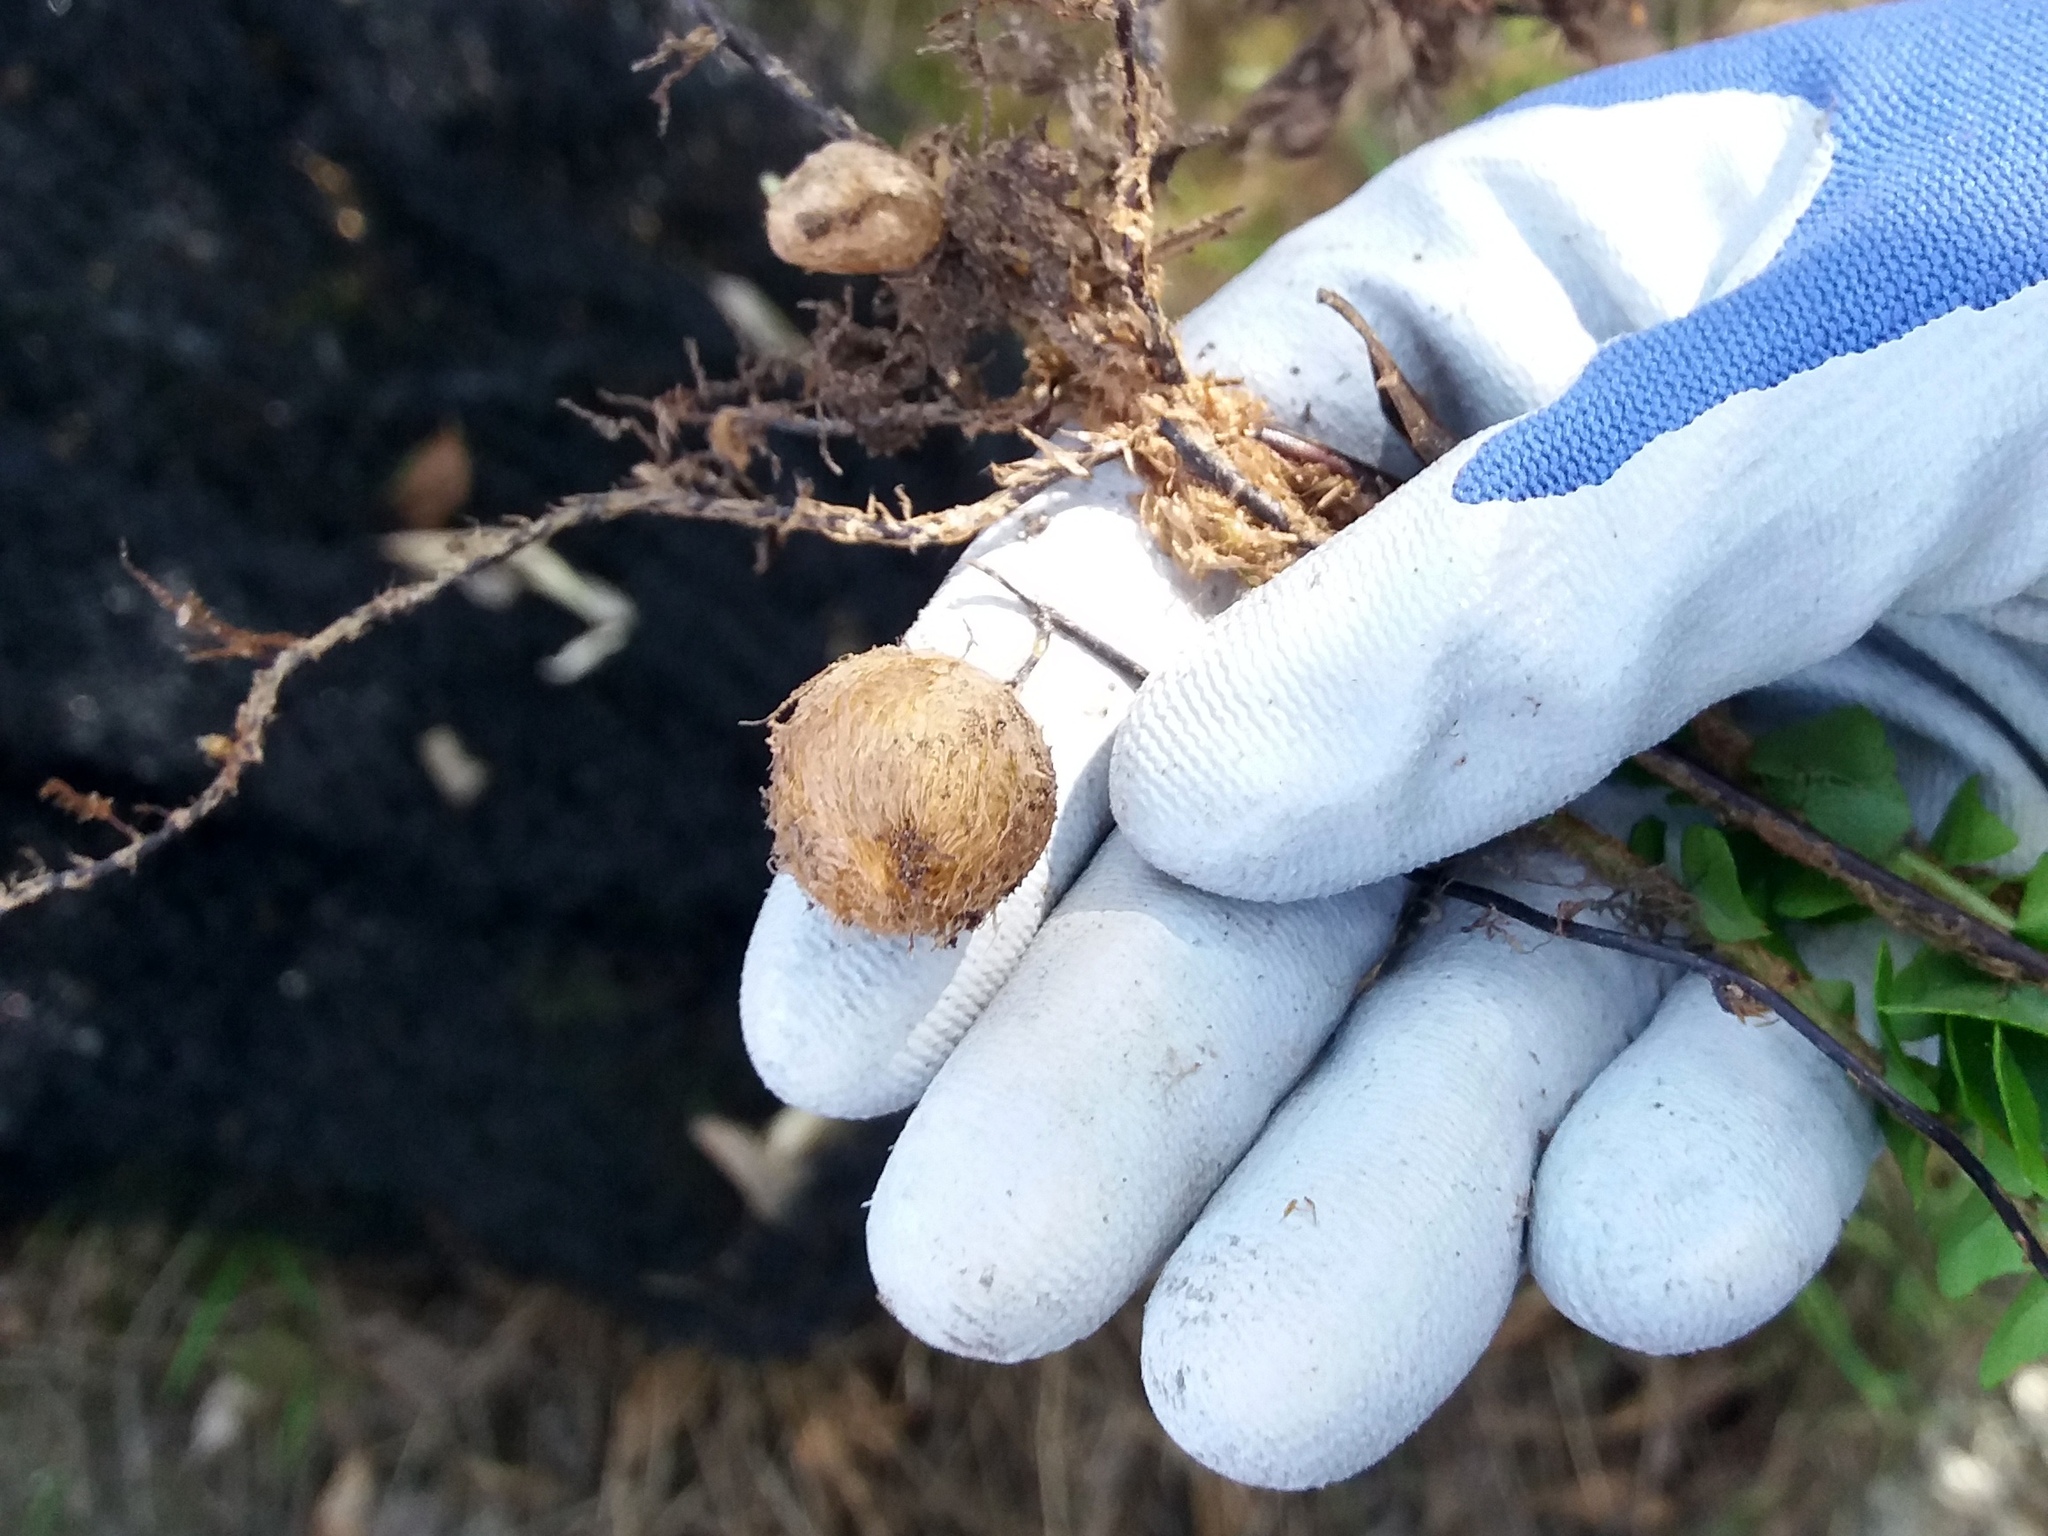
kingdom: Plantae
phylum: Tracheophyta
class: Polypodiopsida
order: Polypodiales
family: Nephrolepidaceae
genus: Nephrolepis
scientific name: Nephrolepis cordifolia
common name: Narrow swordfern
